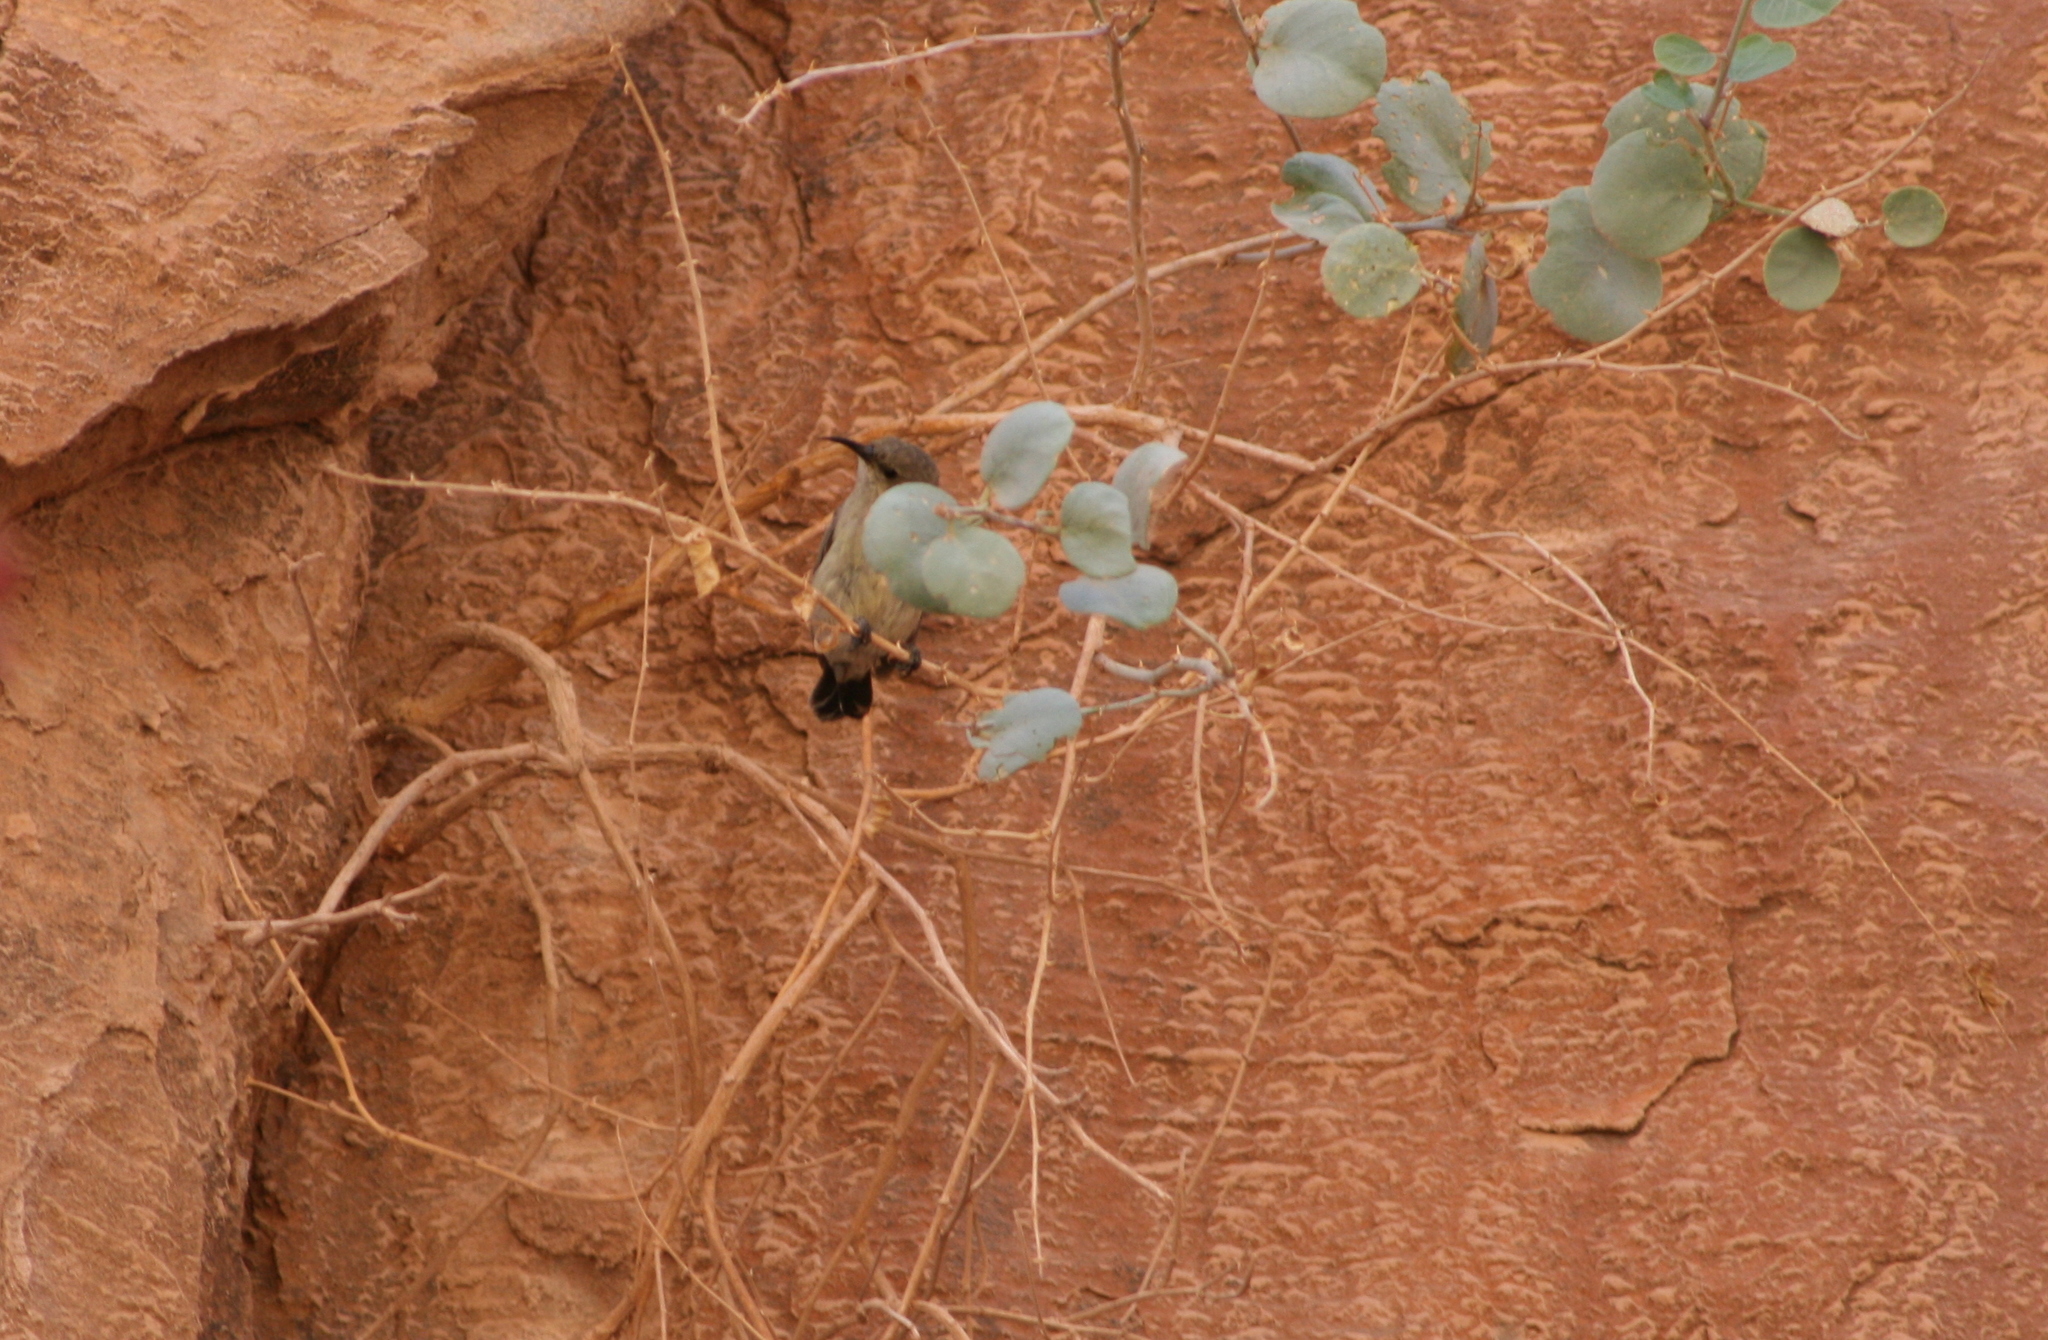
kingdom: Animalia
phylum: Chordata
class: Aves
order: Passeriformes
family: Nectariniidae
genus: Cinnyris
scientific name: Cinnyris osea
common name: Palestine sunbird
